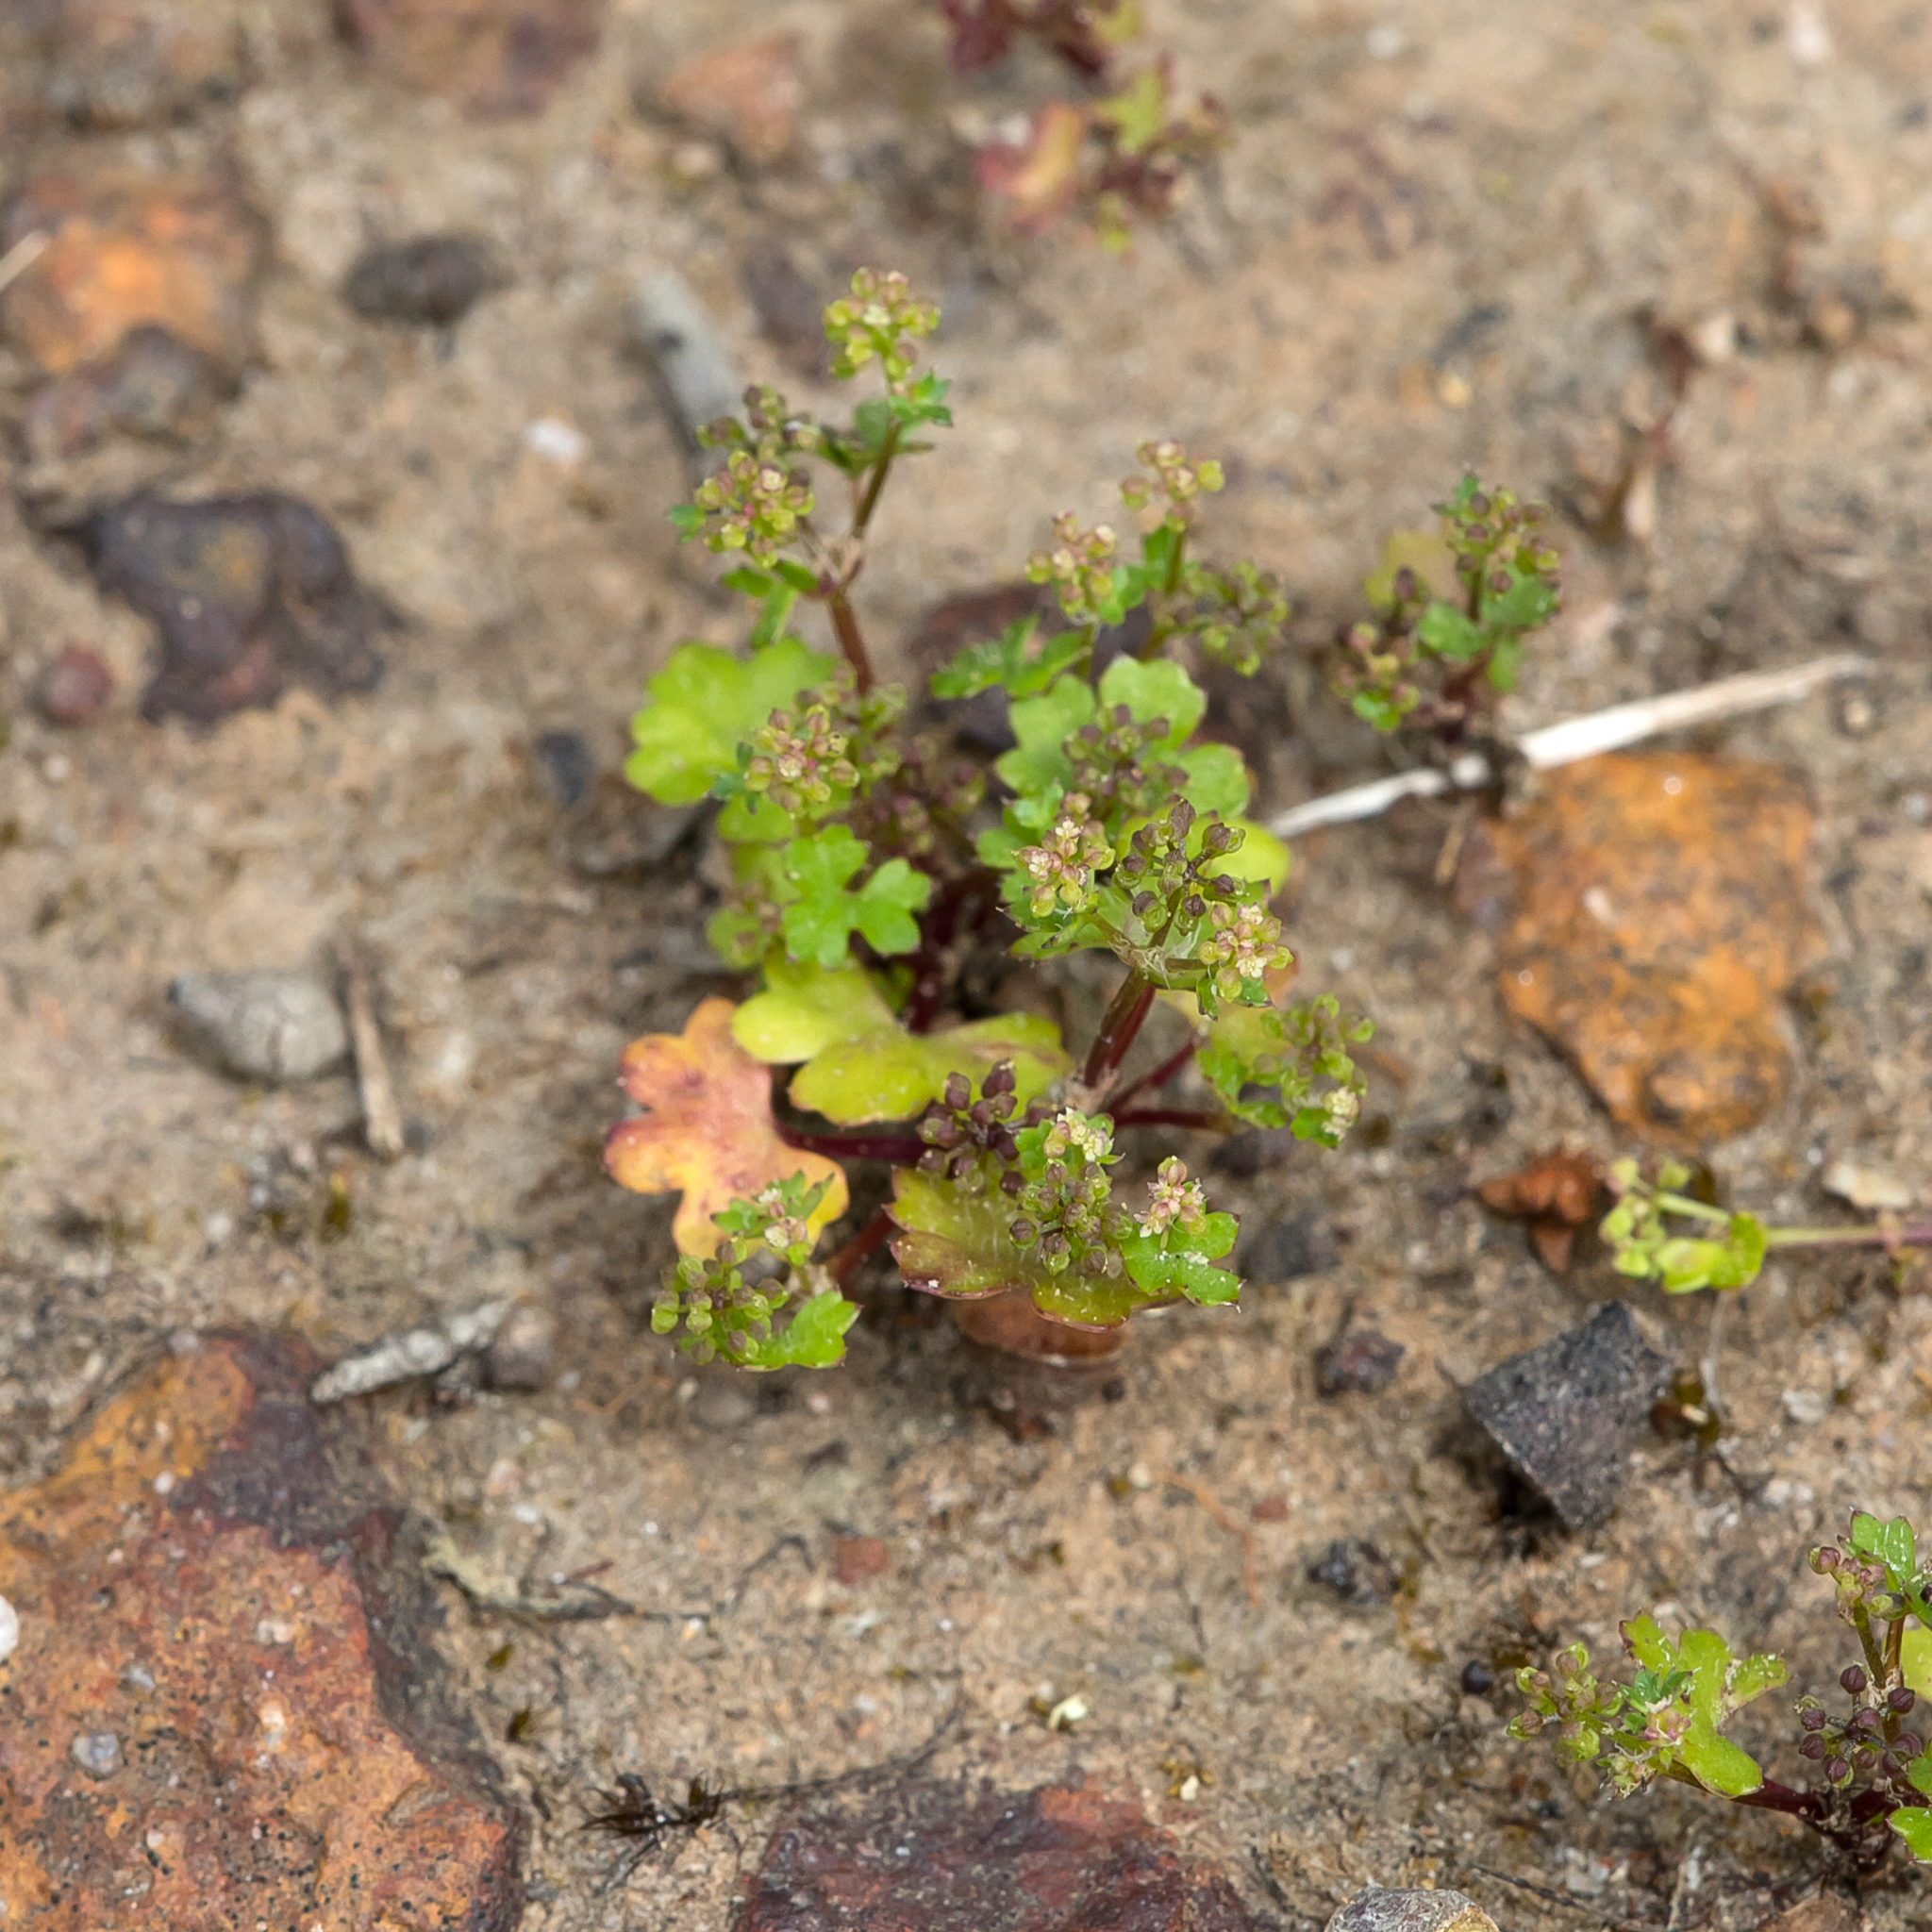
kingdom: Plantae
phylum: Tracheophyta
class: Magnoliopsida
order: Apiales
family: Araliaceae
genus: Hydrocotyle
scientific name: Hydrocotyle callicarpa
